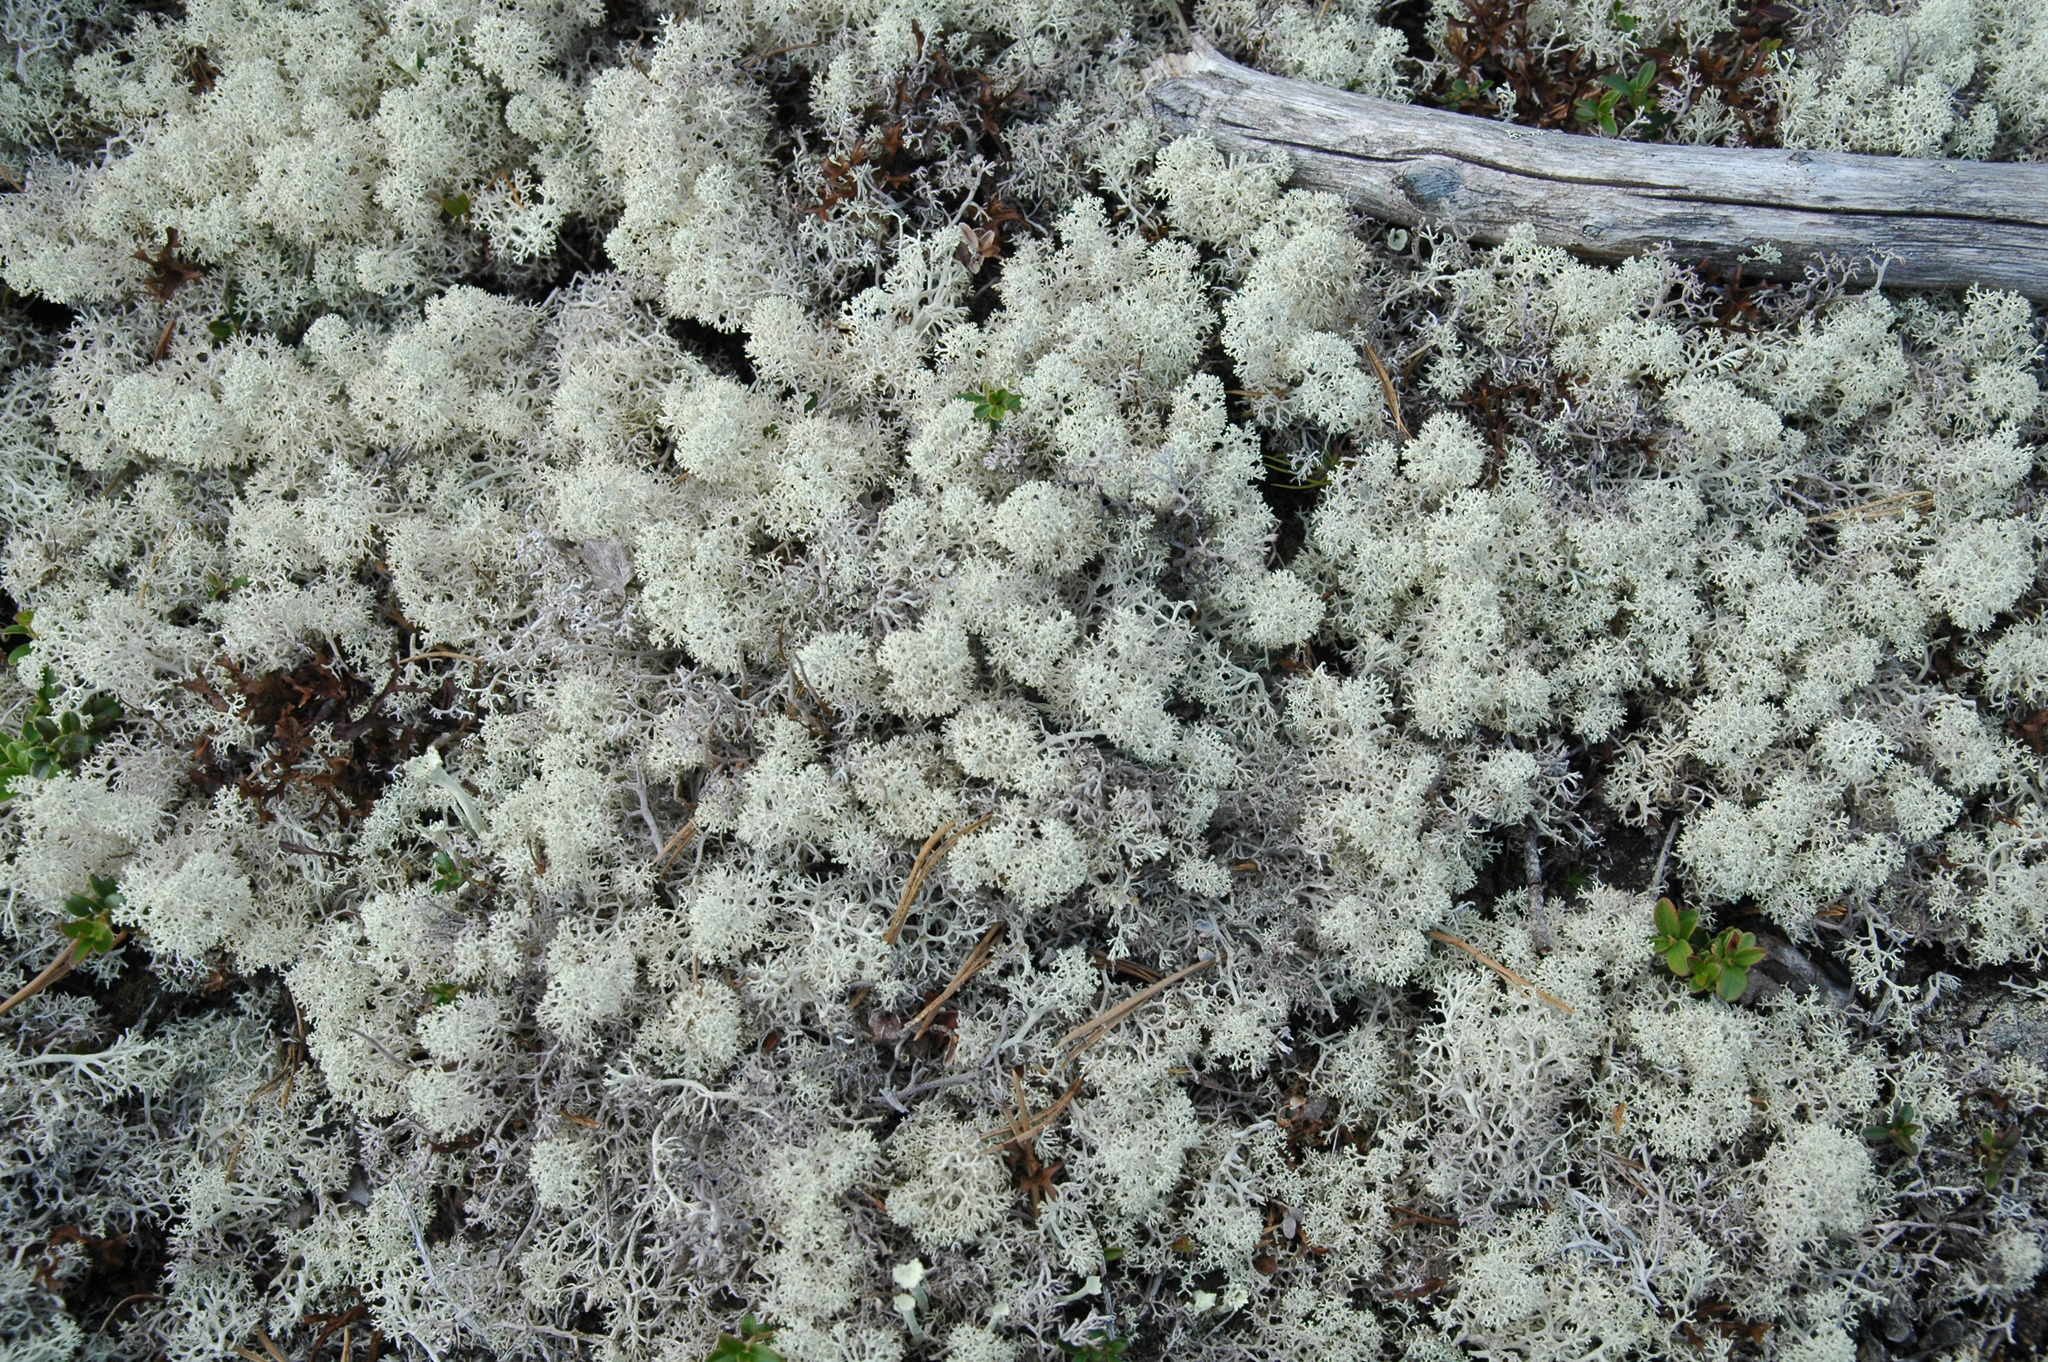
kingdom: Fungi
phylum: Ascomycota
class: Lecanoromycetes
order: Lecanorales
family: Cladoniaceae
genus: Cladonia
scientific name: Cladonia stellaris
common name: Star-tipped reindeer lichen
